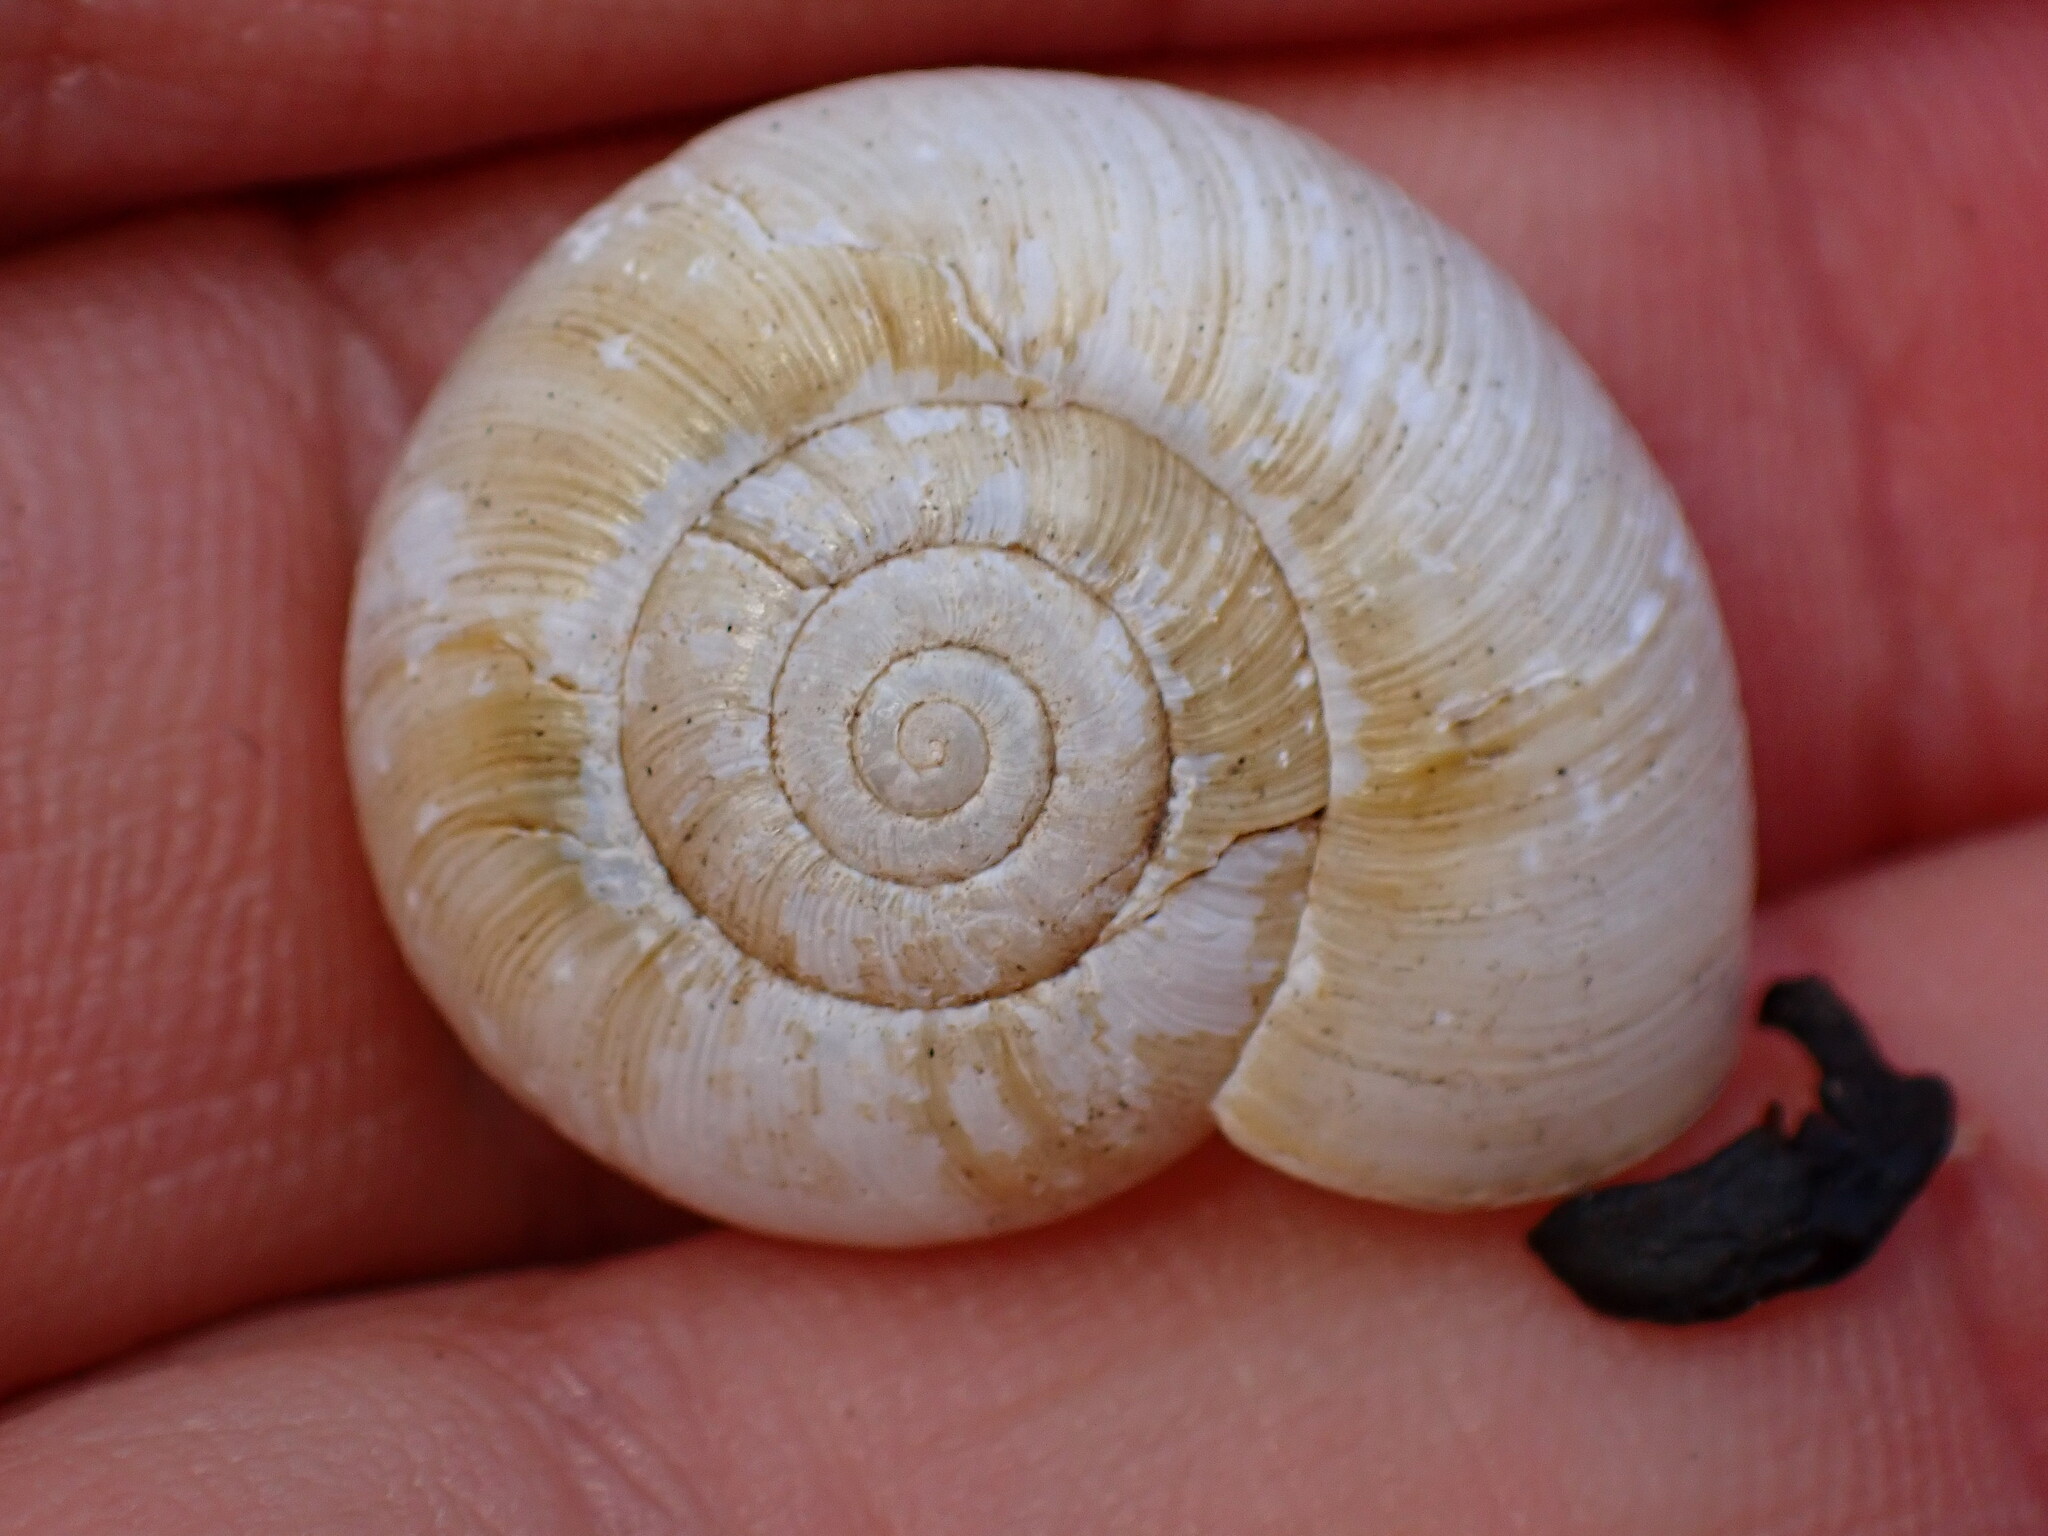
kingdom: Animalia
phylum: Mollusca
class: Gastropoda
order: Stylommatophora
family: Haplotrematidae
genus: Haplotrema
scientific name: Haplotrema minimum
